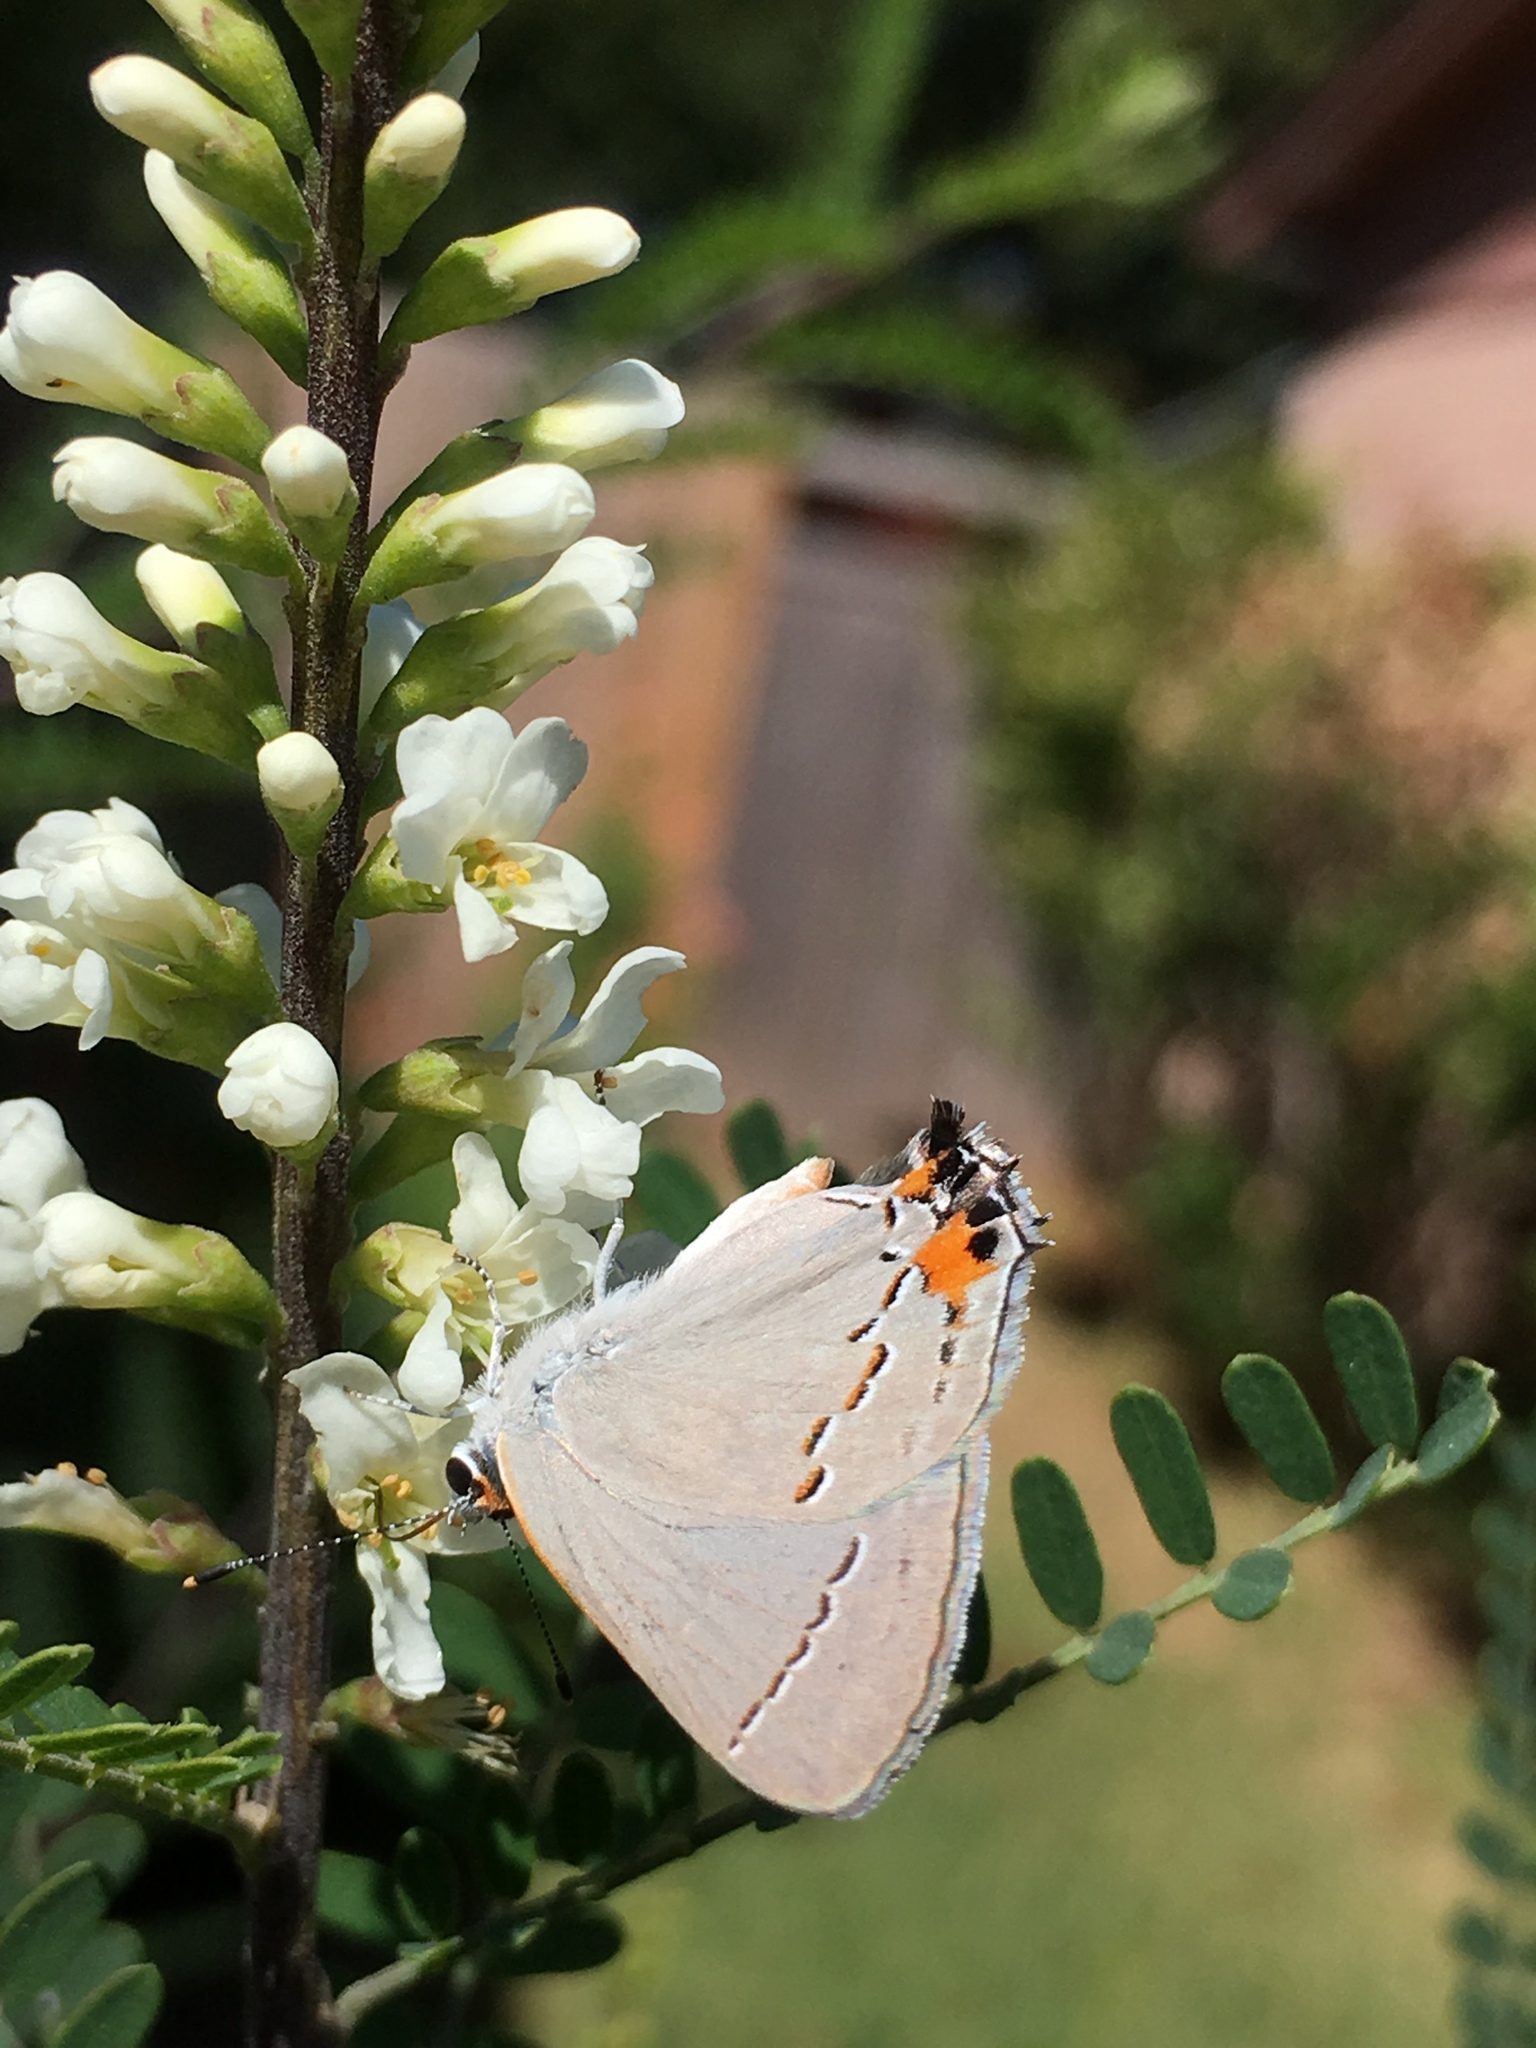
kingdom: Animalia
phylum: Arthropoda
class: Insecta
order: Lepidoptera
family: Lycaenidae
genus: Strymon
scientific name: Strymon melinus
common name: Gray hairstreak
